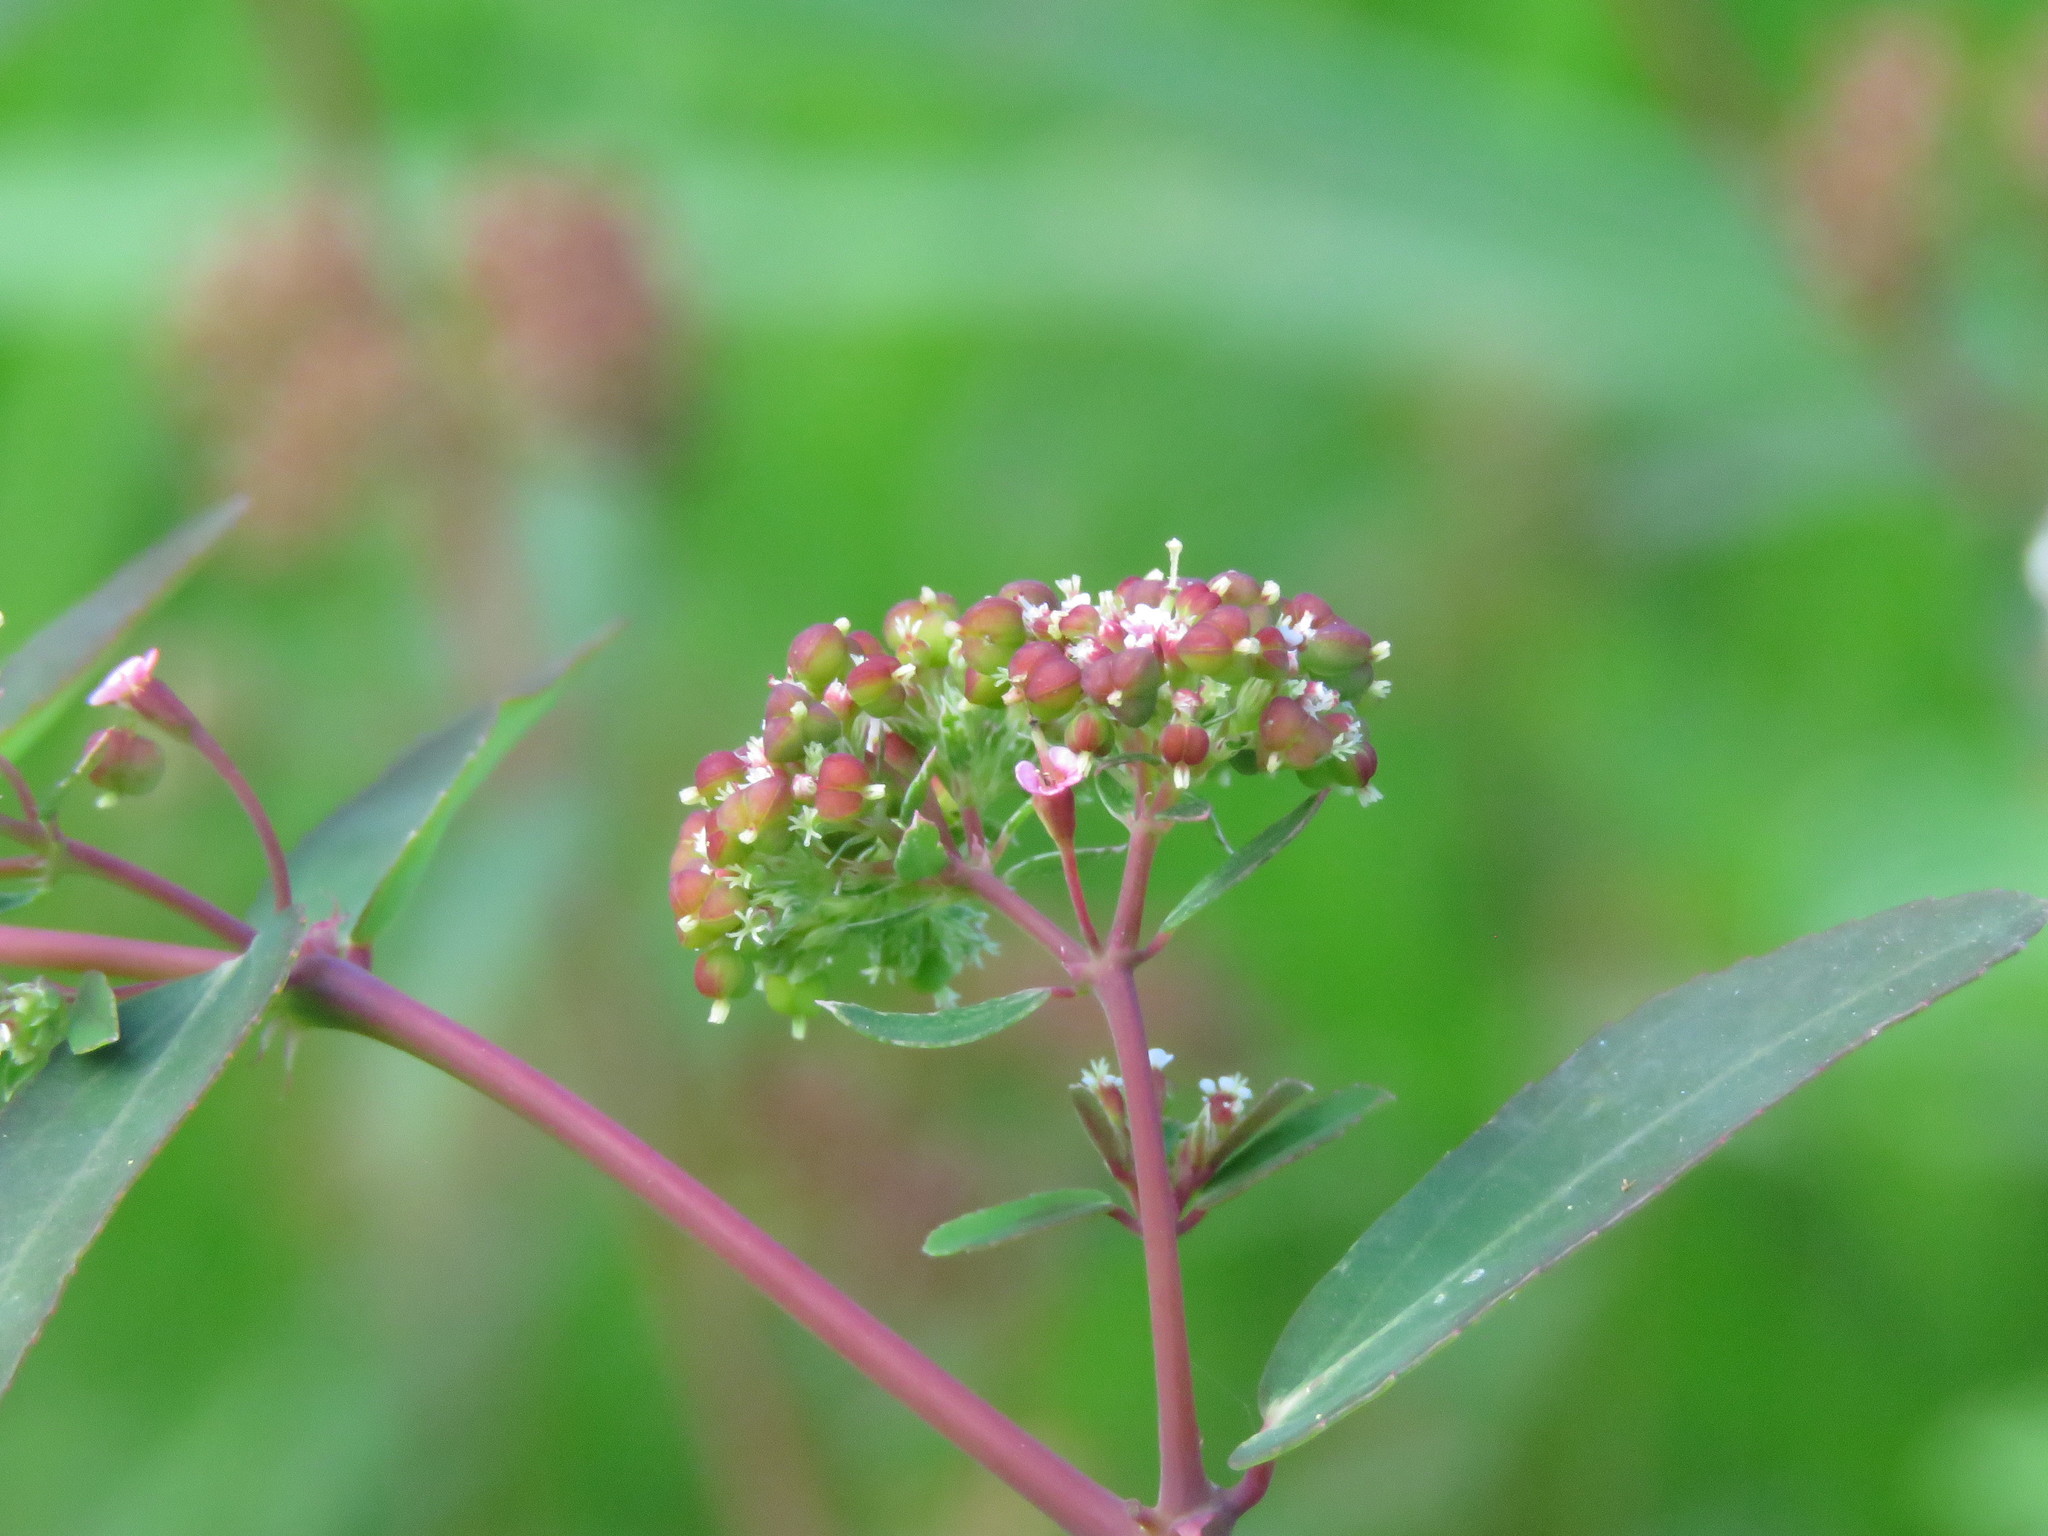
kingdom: Plantae
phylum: Tracheophyta
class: Magnoliopsida
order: Malpighiales
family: Euphorbiaceae
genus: Euphorbia
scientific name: Euphorbia hypericifolia
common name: Graceful sandmat
